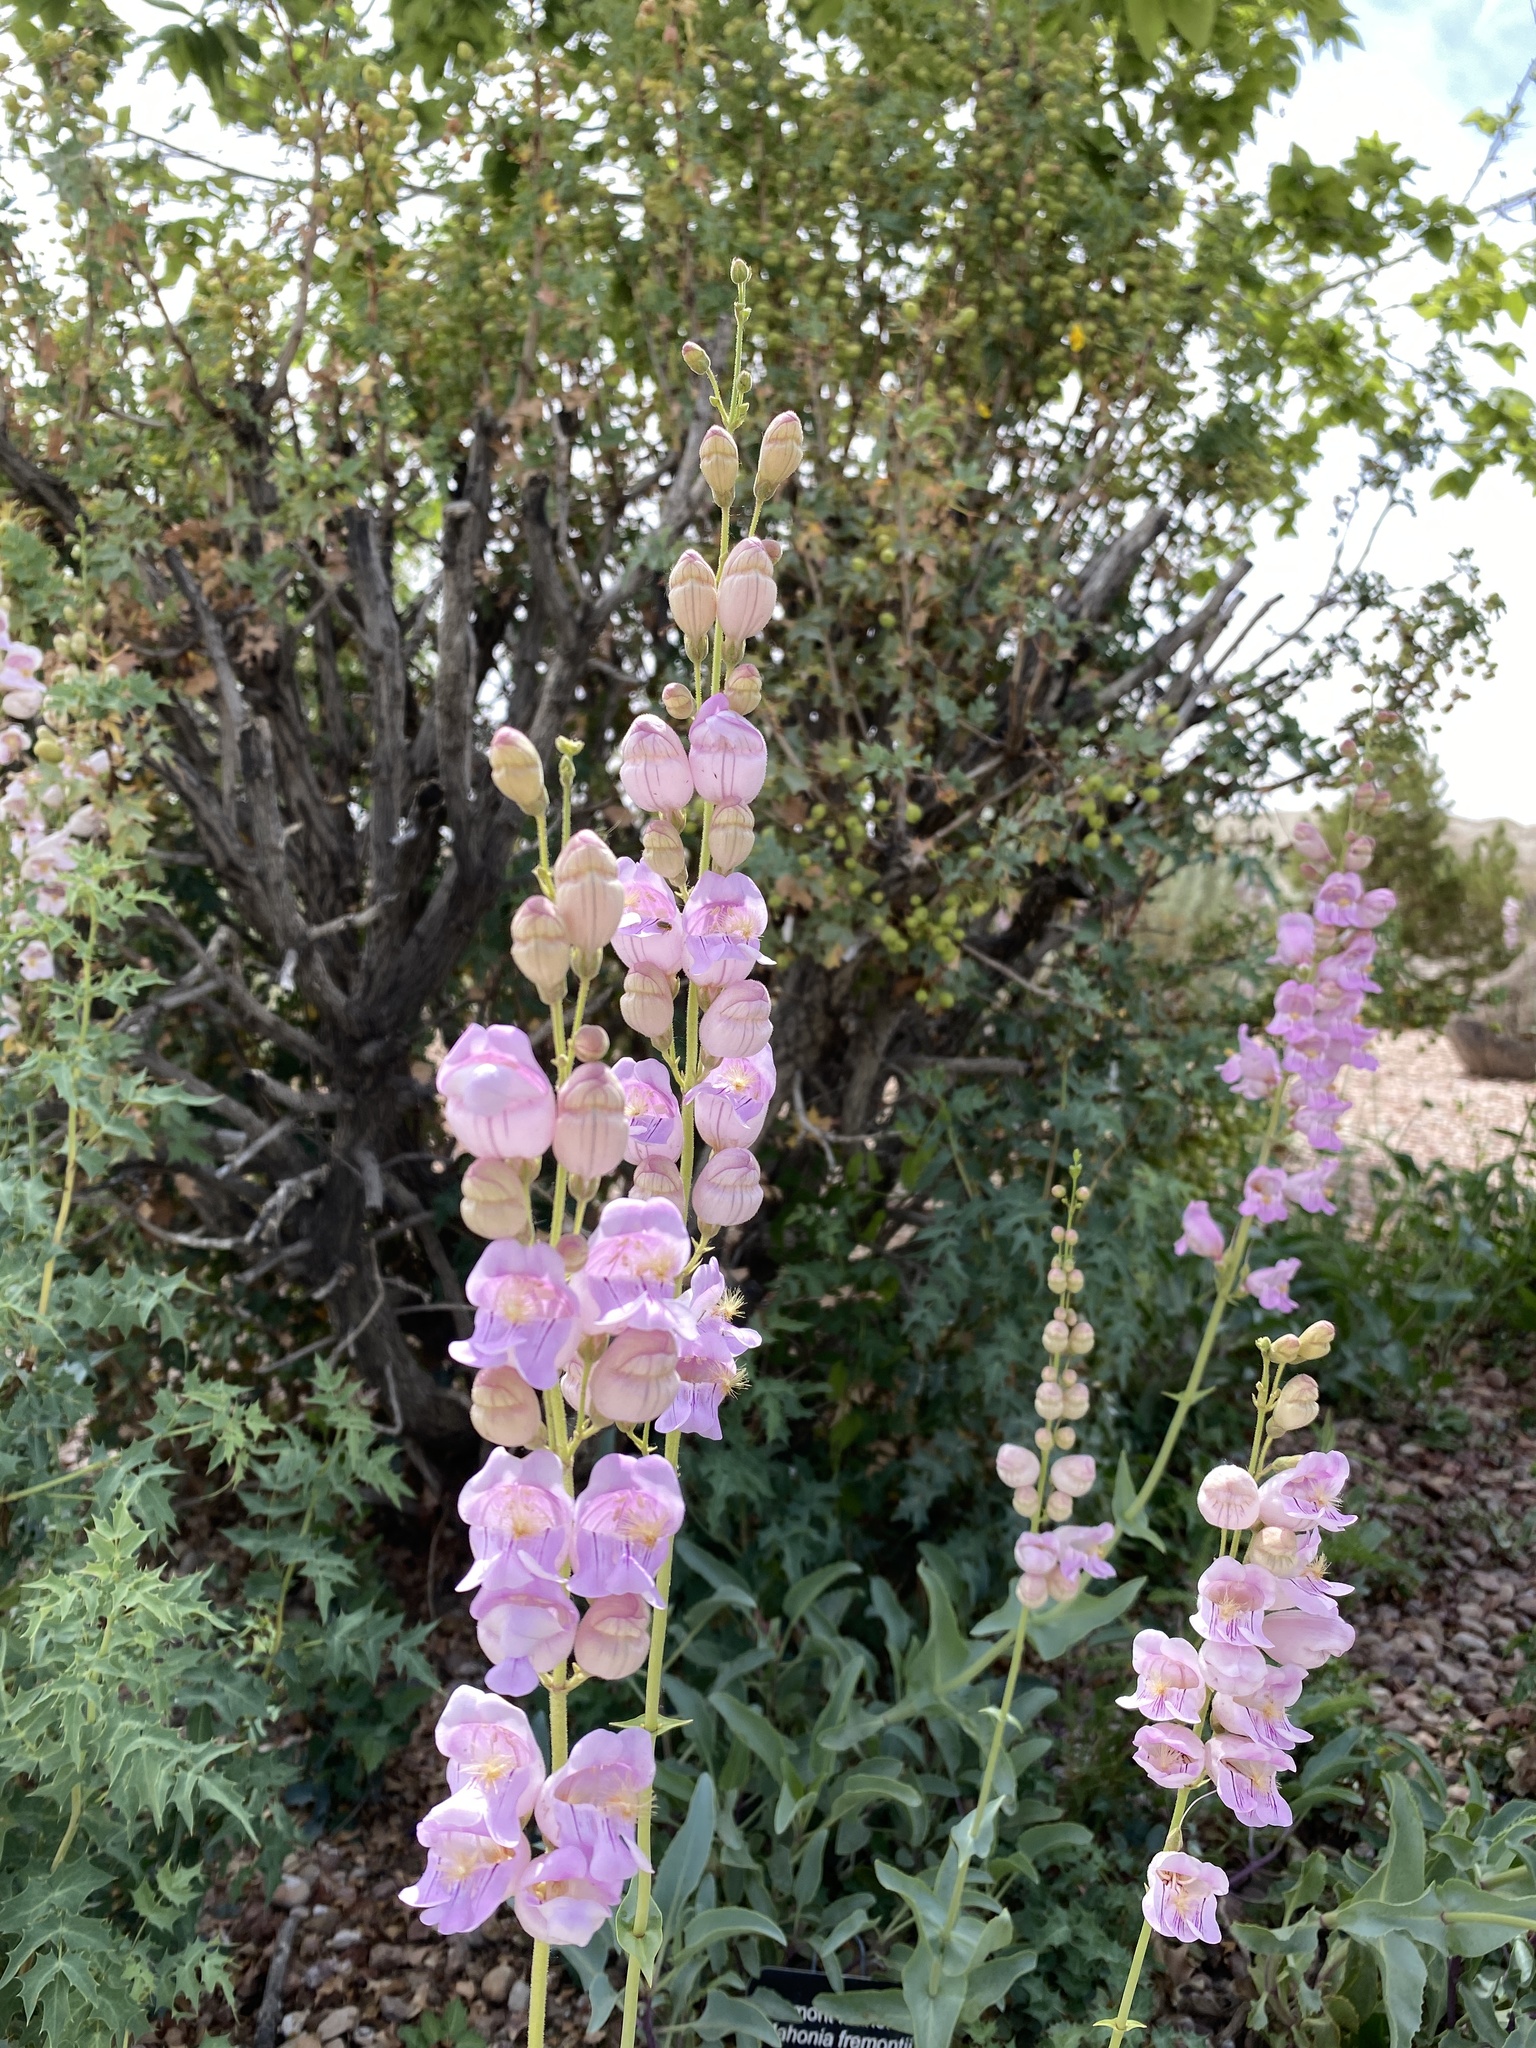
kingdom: Plantae
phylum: Tracheophyta
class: Magnoliopsida
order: Lamiales
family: Plantaginaceae
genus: Penstemon
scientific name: Penstemon palmeri
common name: Palmer penstemon
